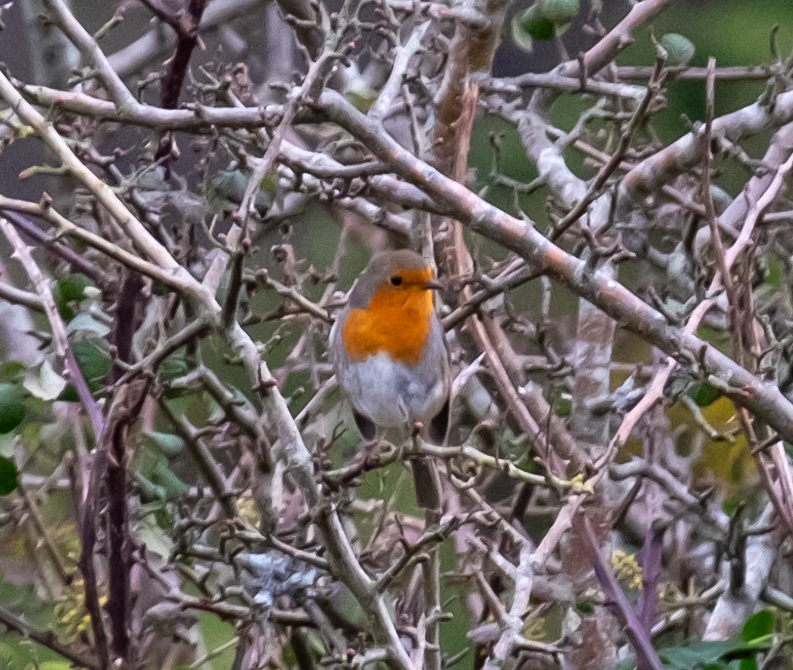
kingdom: Animalia
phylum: Chordata
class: Aves
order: Passeriformes
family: Muscicapidae
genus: Erithacus
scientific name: Erithacus rubecula
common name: European robin
